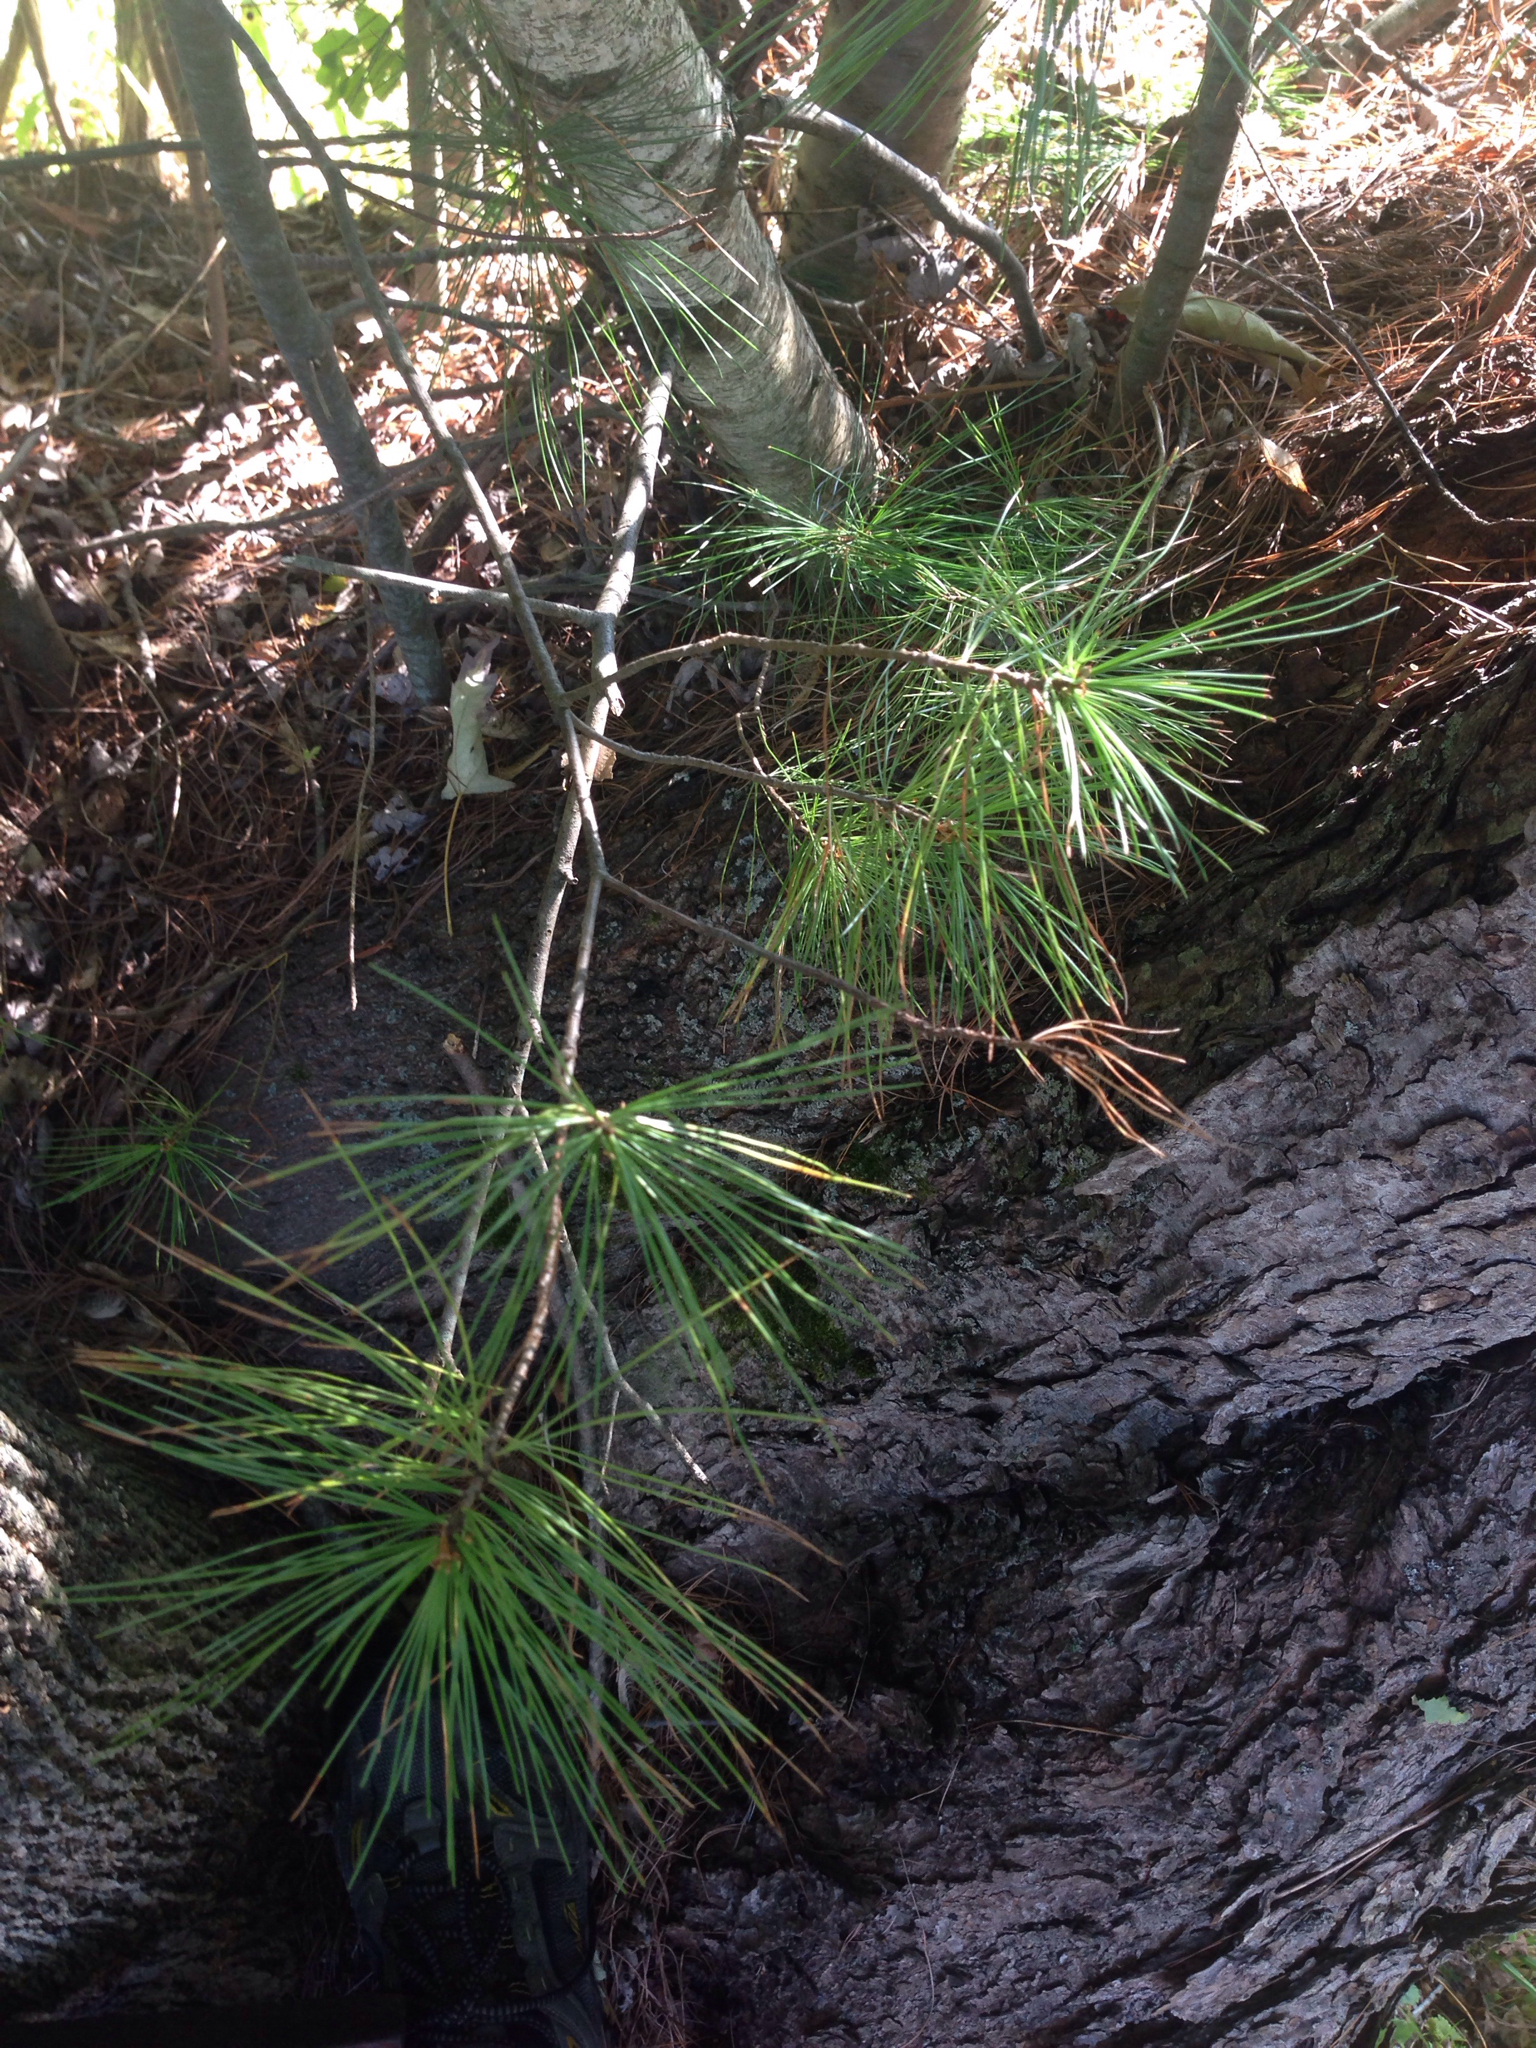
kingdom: Plantae
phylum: Tracheophyta
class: Pinopsida
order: Pinales
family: Pinaceae
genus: Pinus
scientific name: Pinus strobus
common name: Weymouth pine
